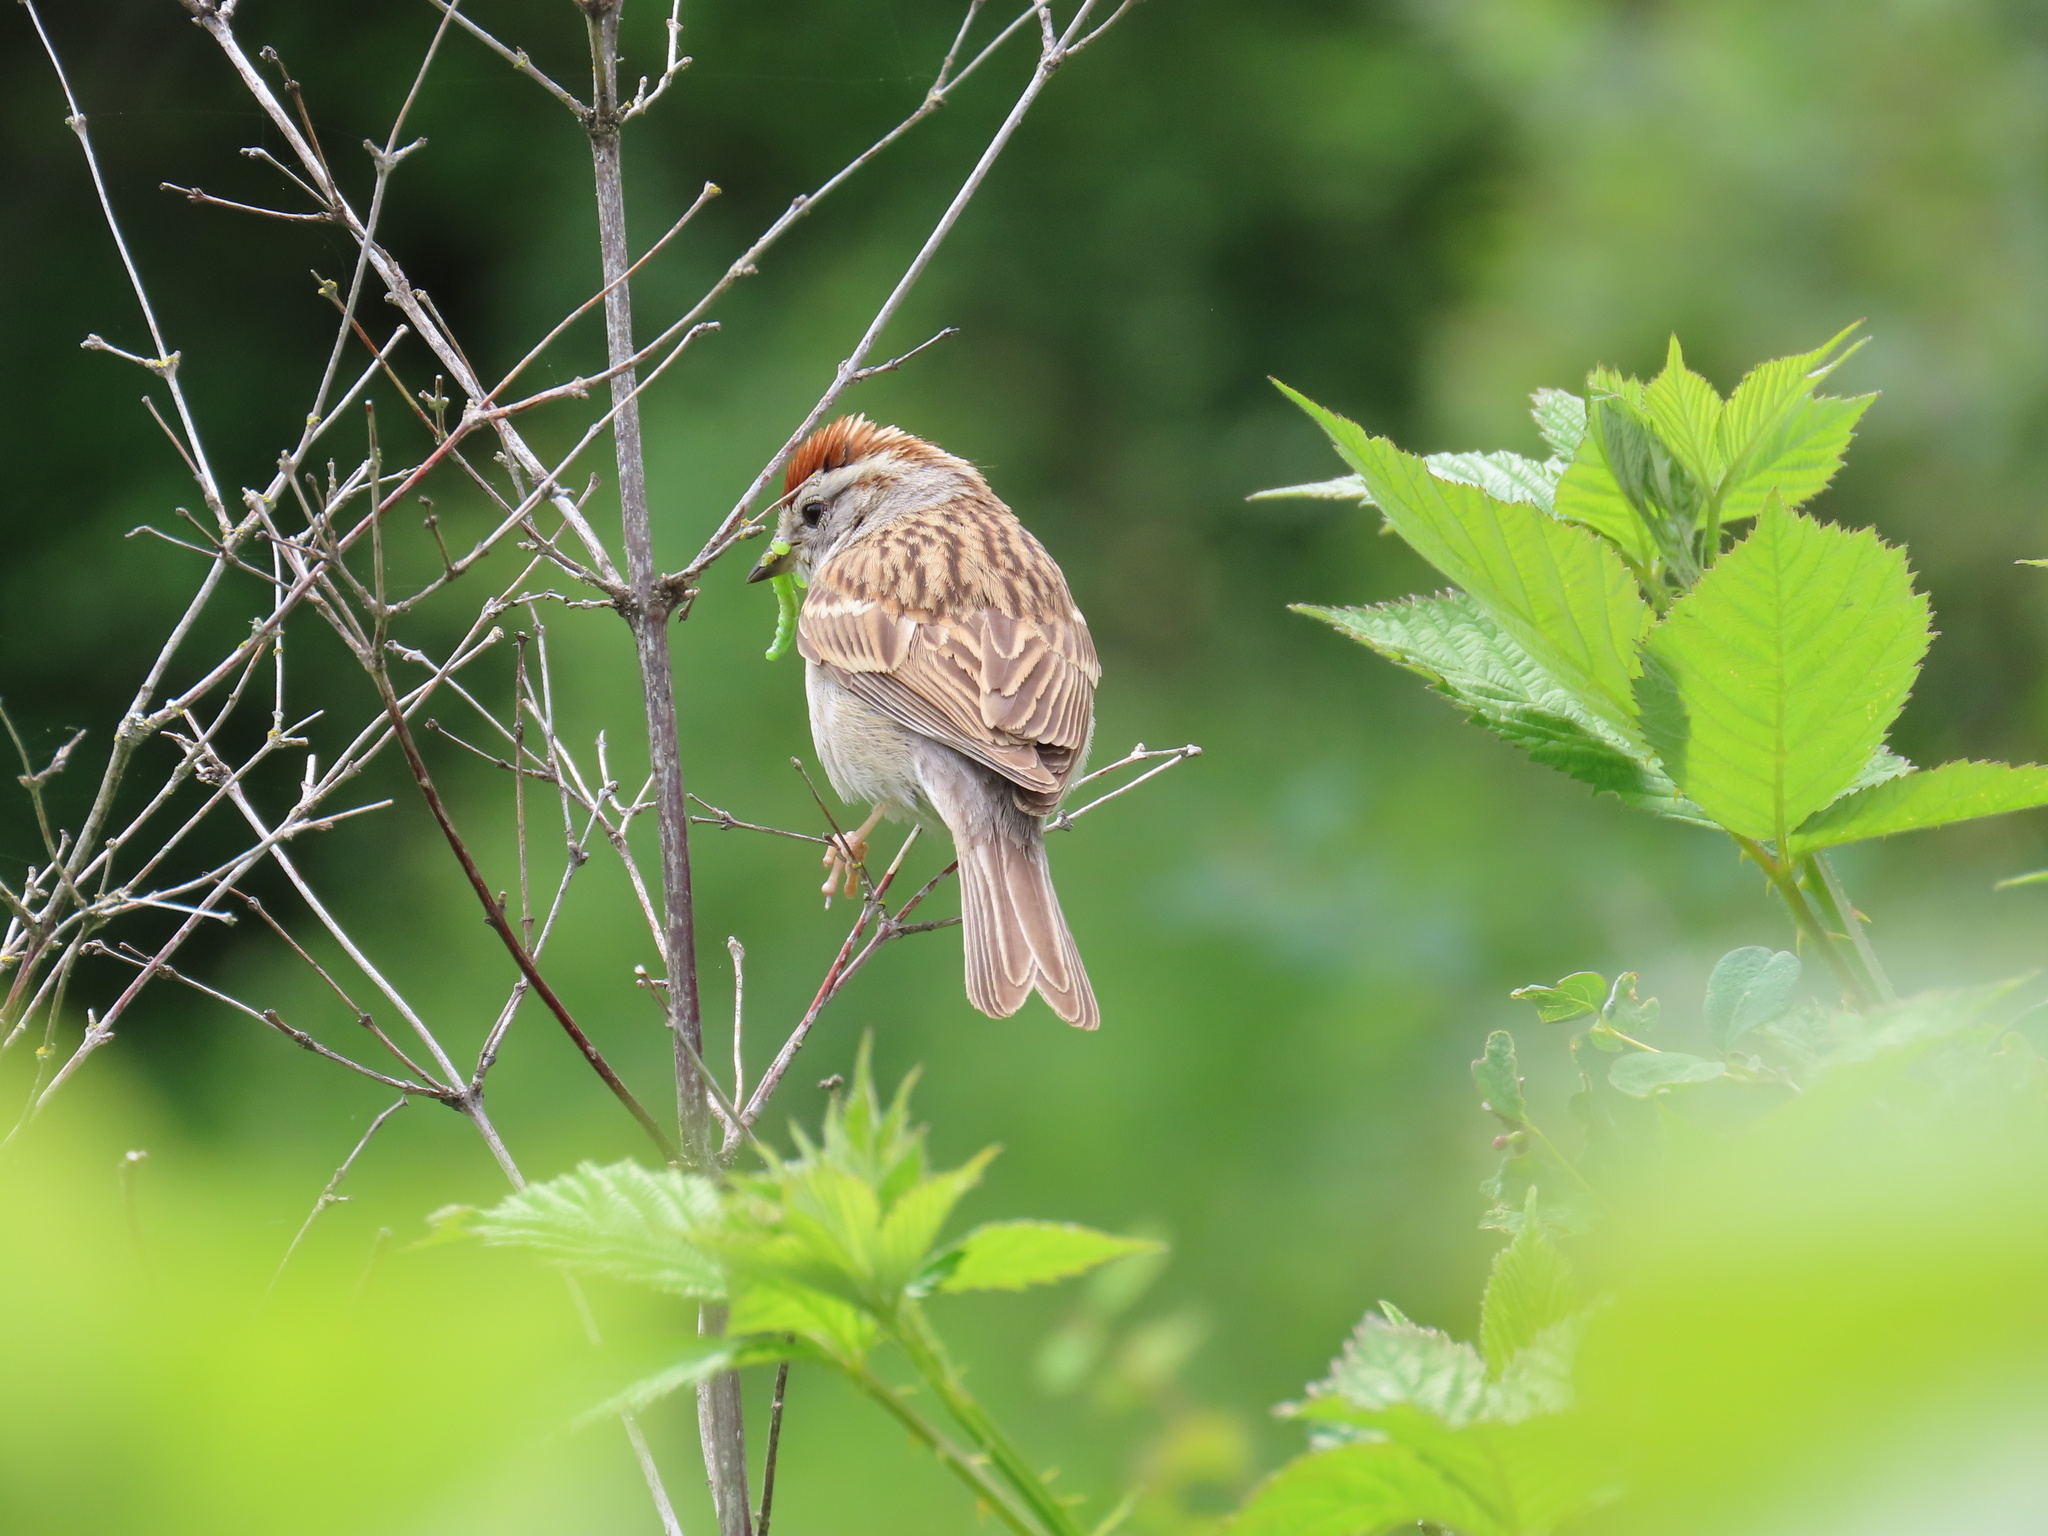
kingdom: Animalia
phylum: Chordata
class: Aves
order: Passeriformes
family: Passerellidae
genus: Spizella
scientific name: Spizella passerina
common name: Chipping sparrow
